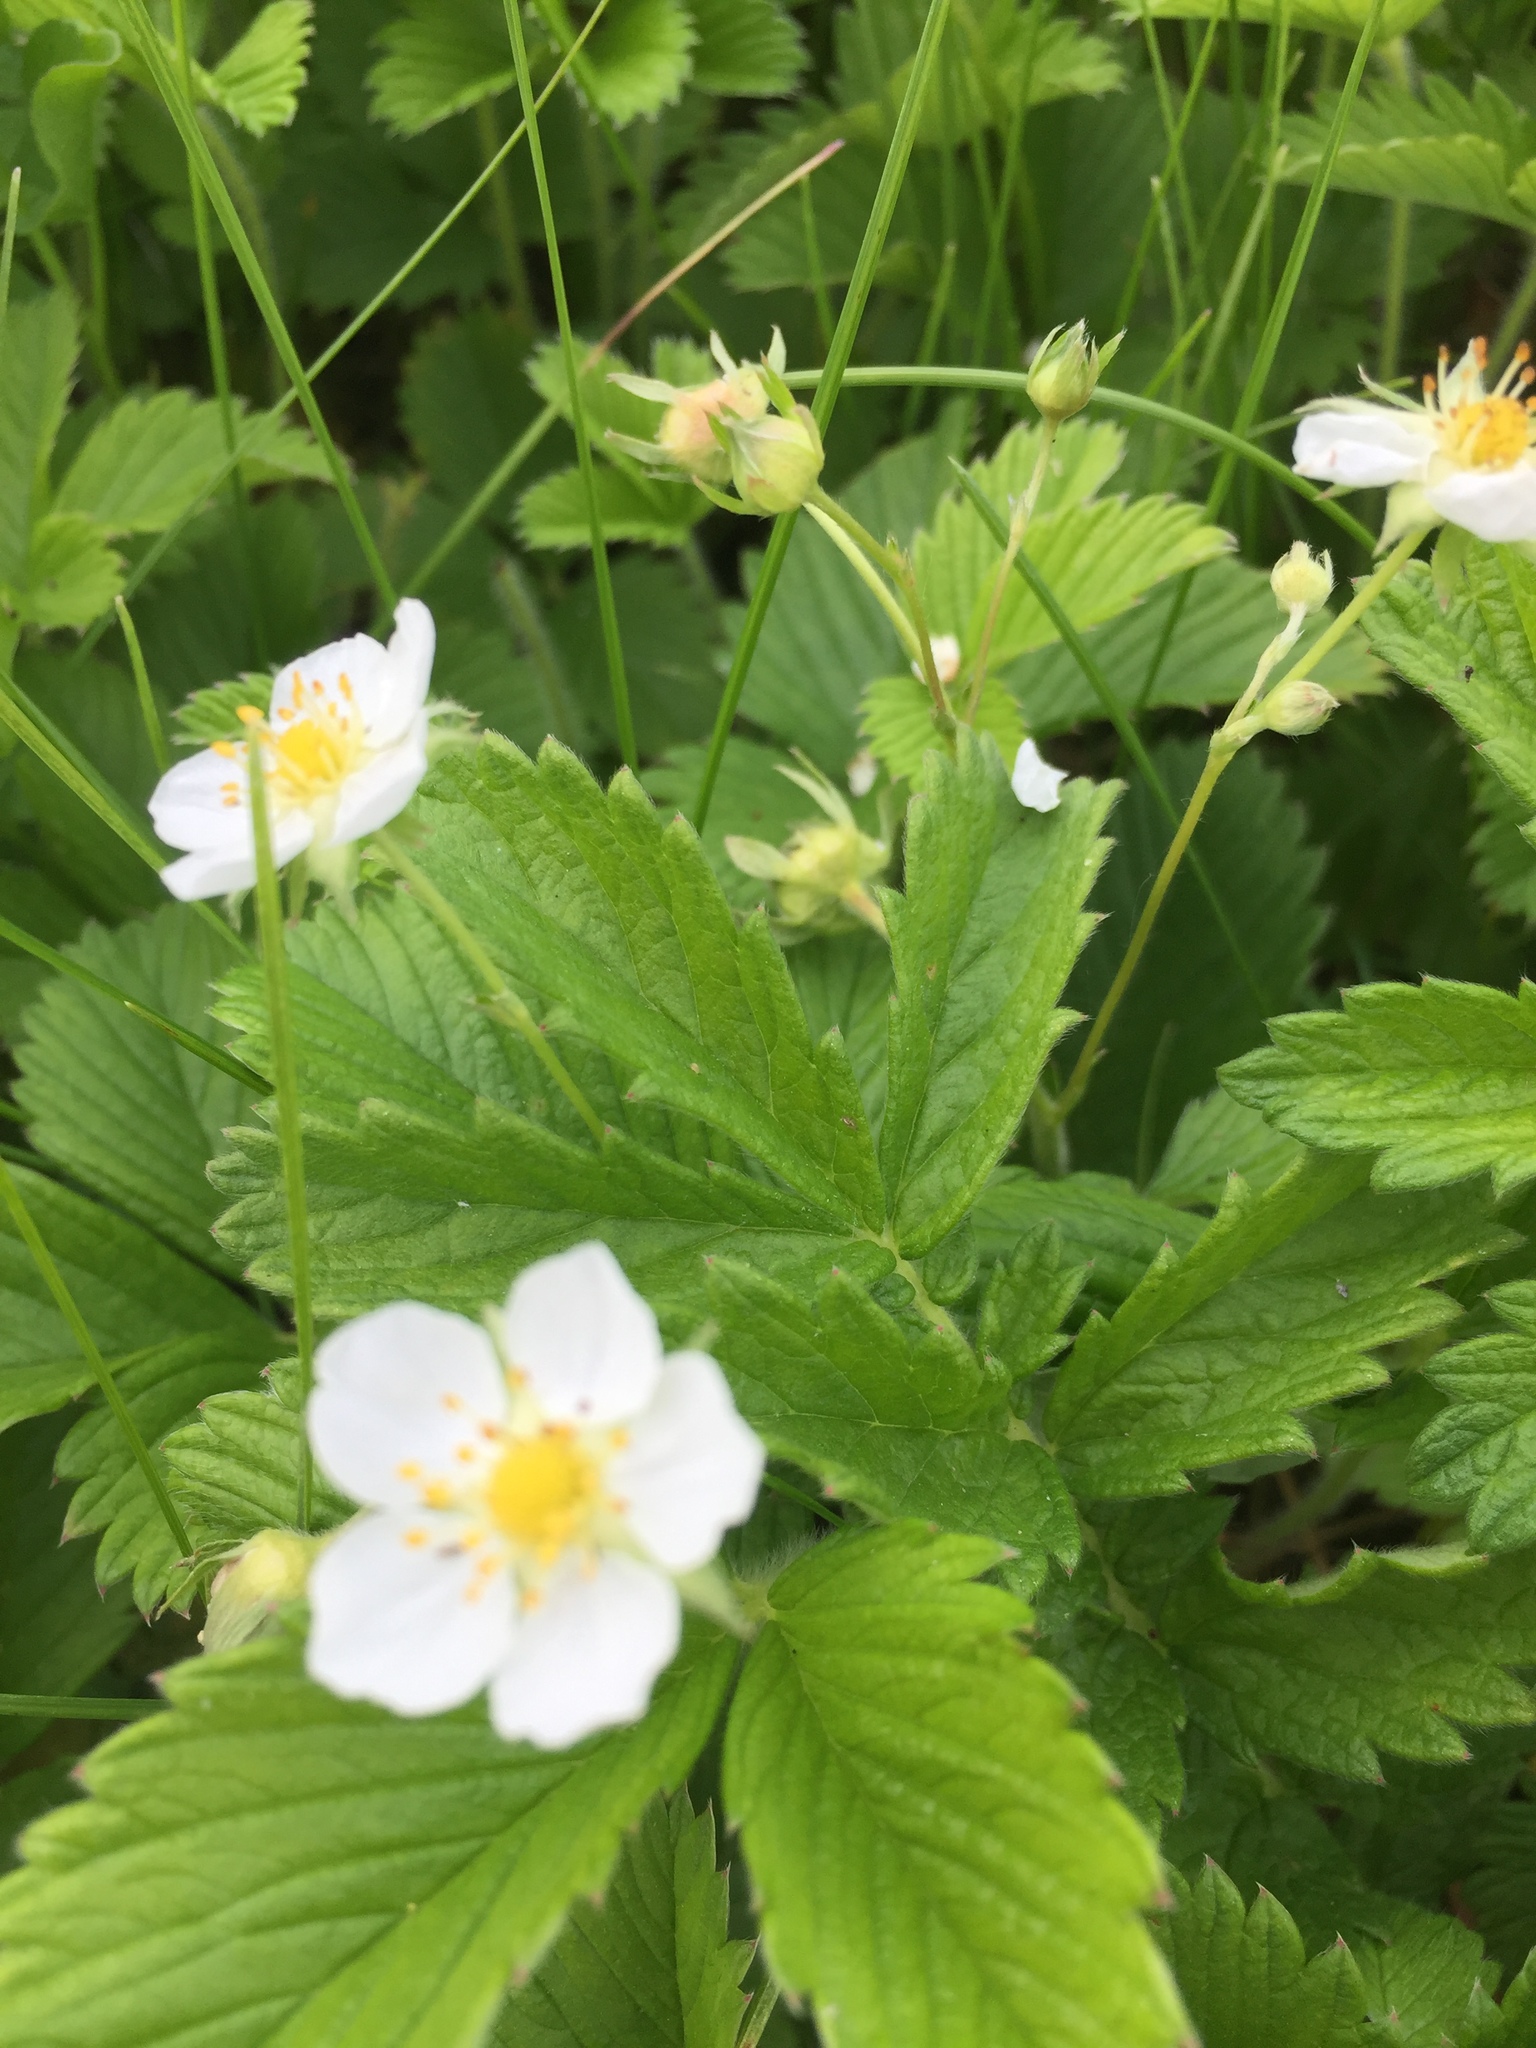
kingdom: Plantae
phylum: Tracheophyta
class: Magnoliopsida
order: Rosales
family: Rosaceae
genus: Fragaria
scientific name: Fragaria viridis
